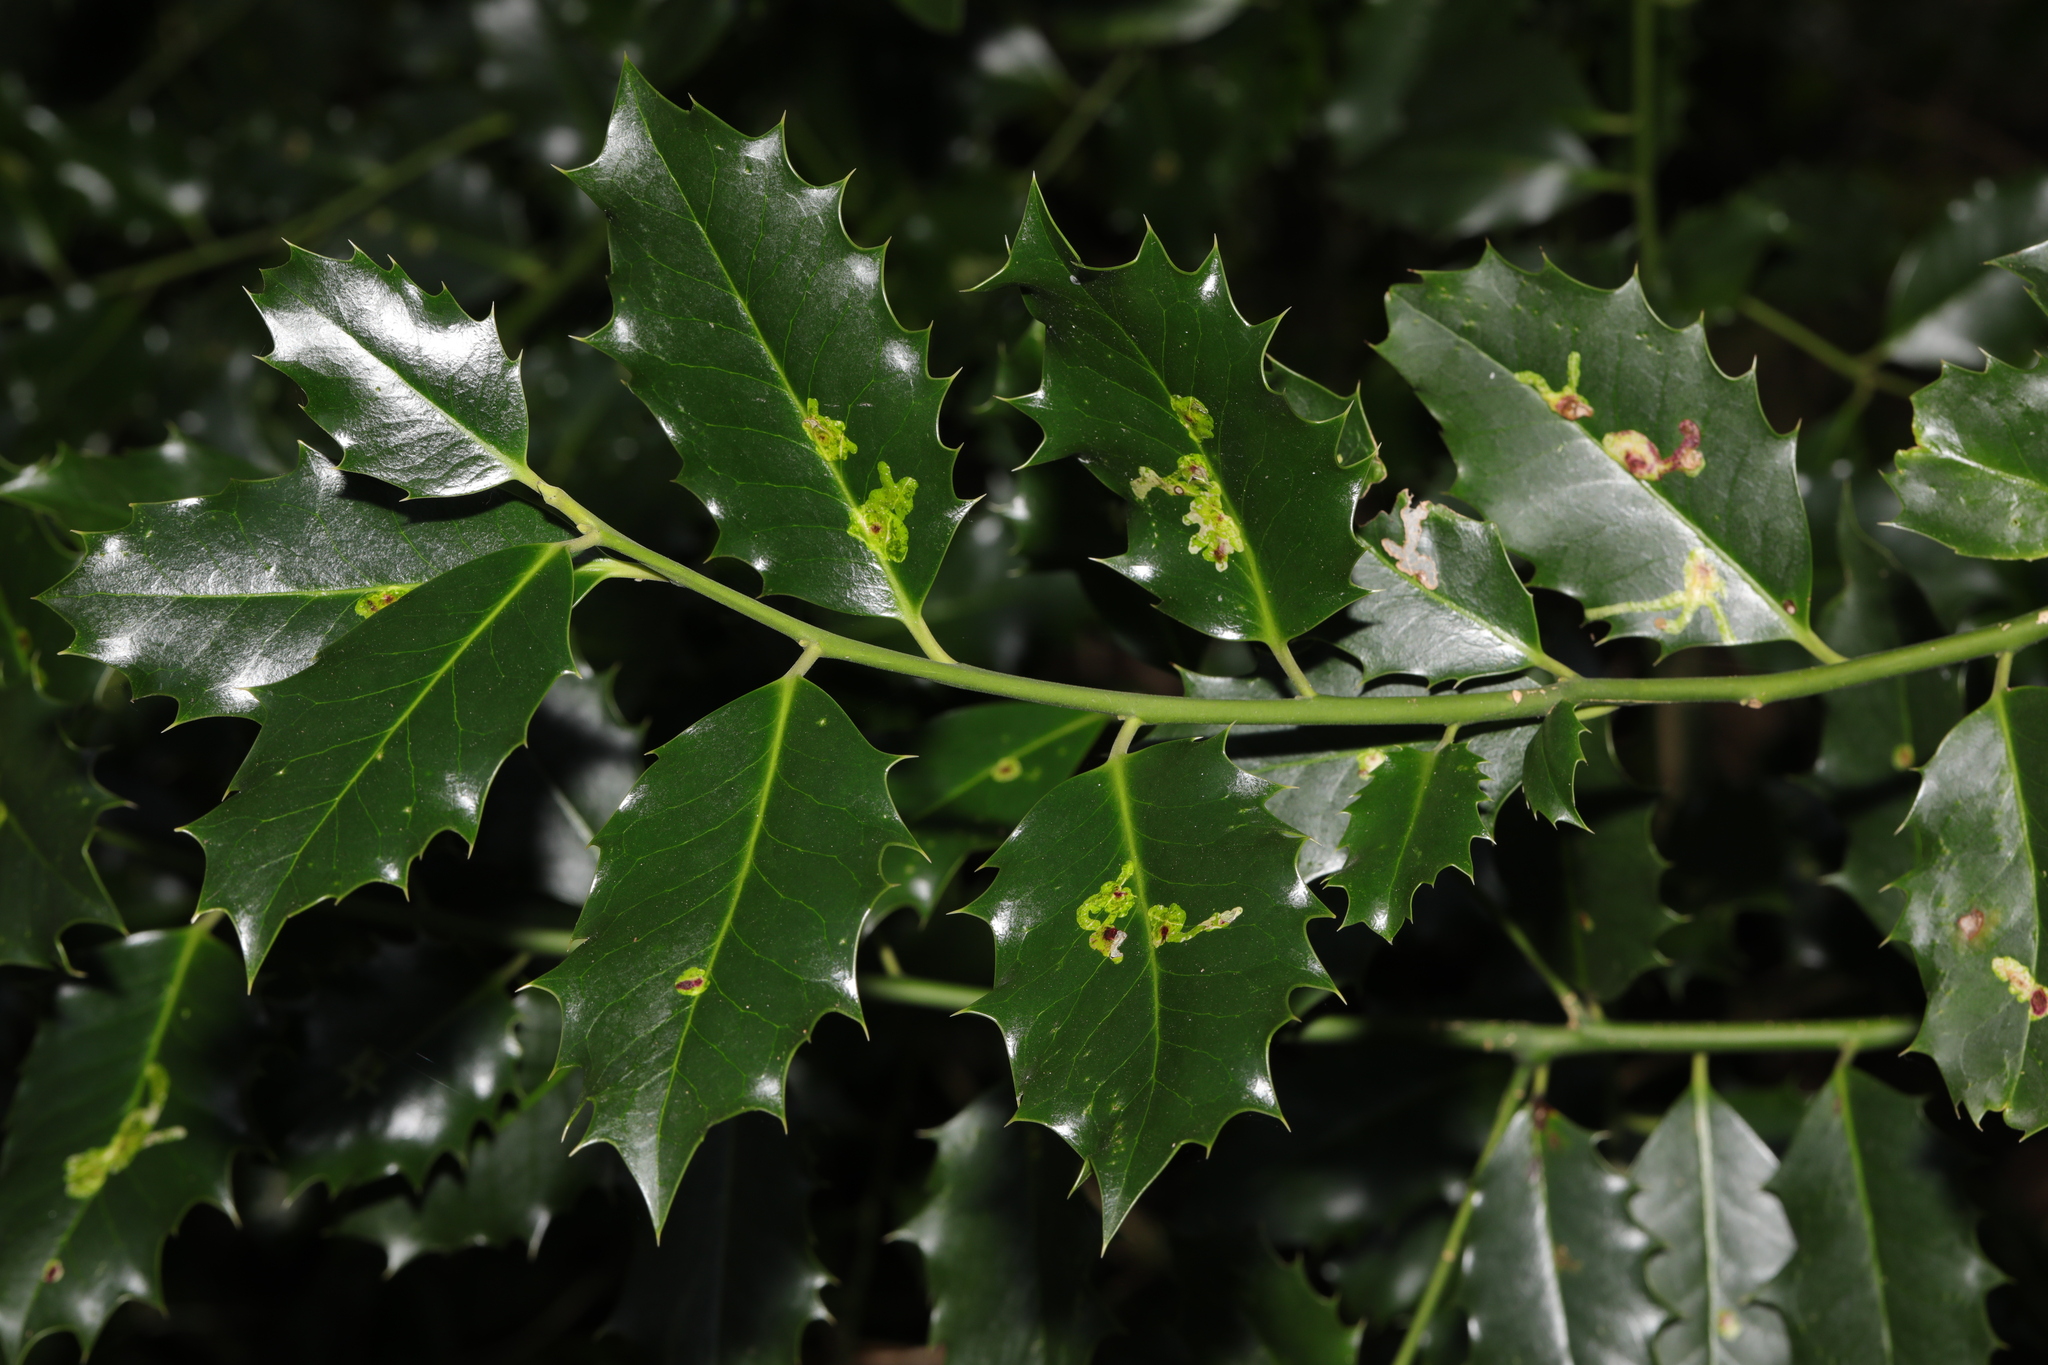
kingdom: Plantae
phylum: Tracheophyta
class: Magnoliopsida
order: Aquifoliales
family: Aquifoliaceae
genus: Ilex
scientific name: Ilex aquifolium
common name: English holly
